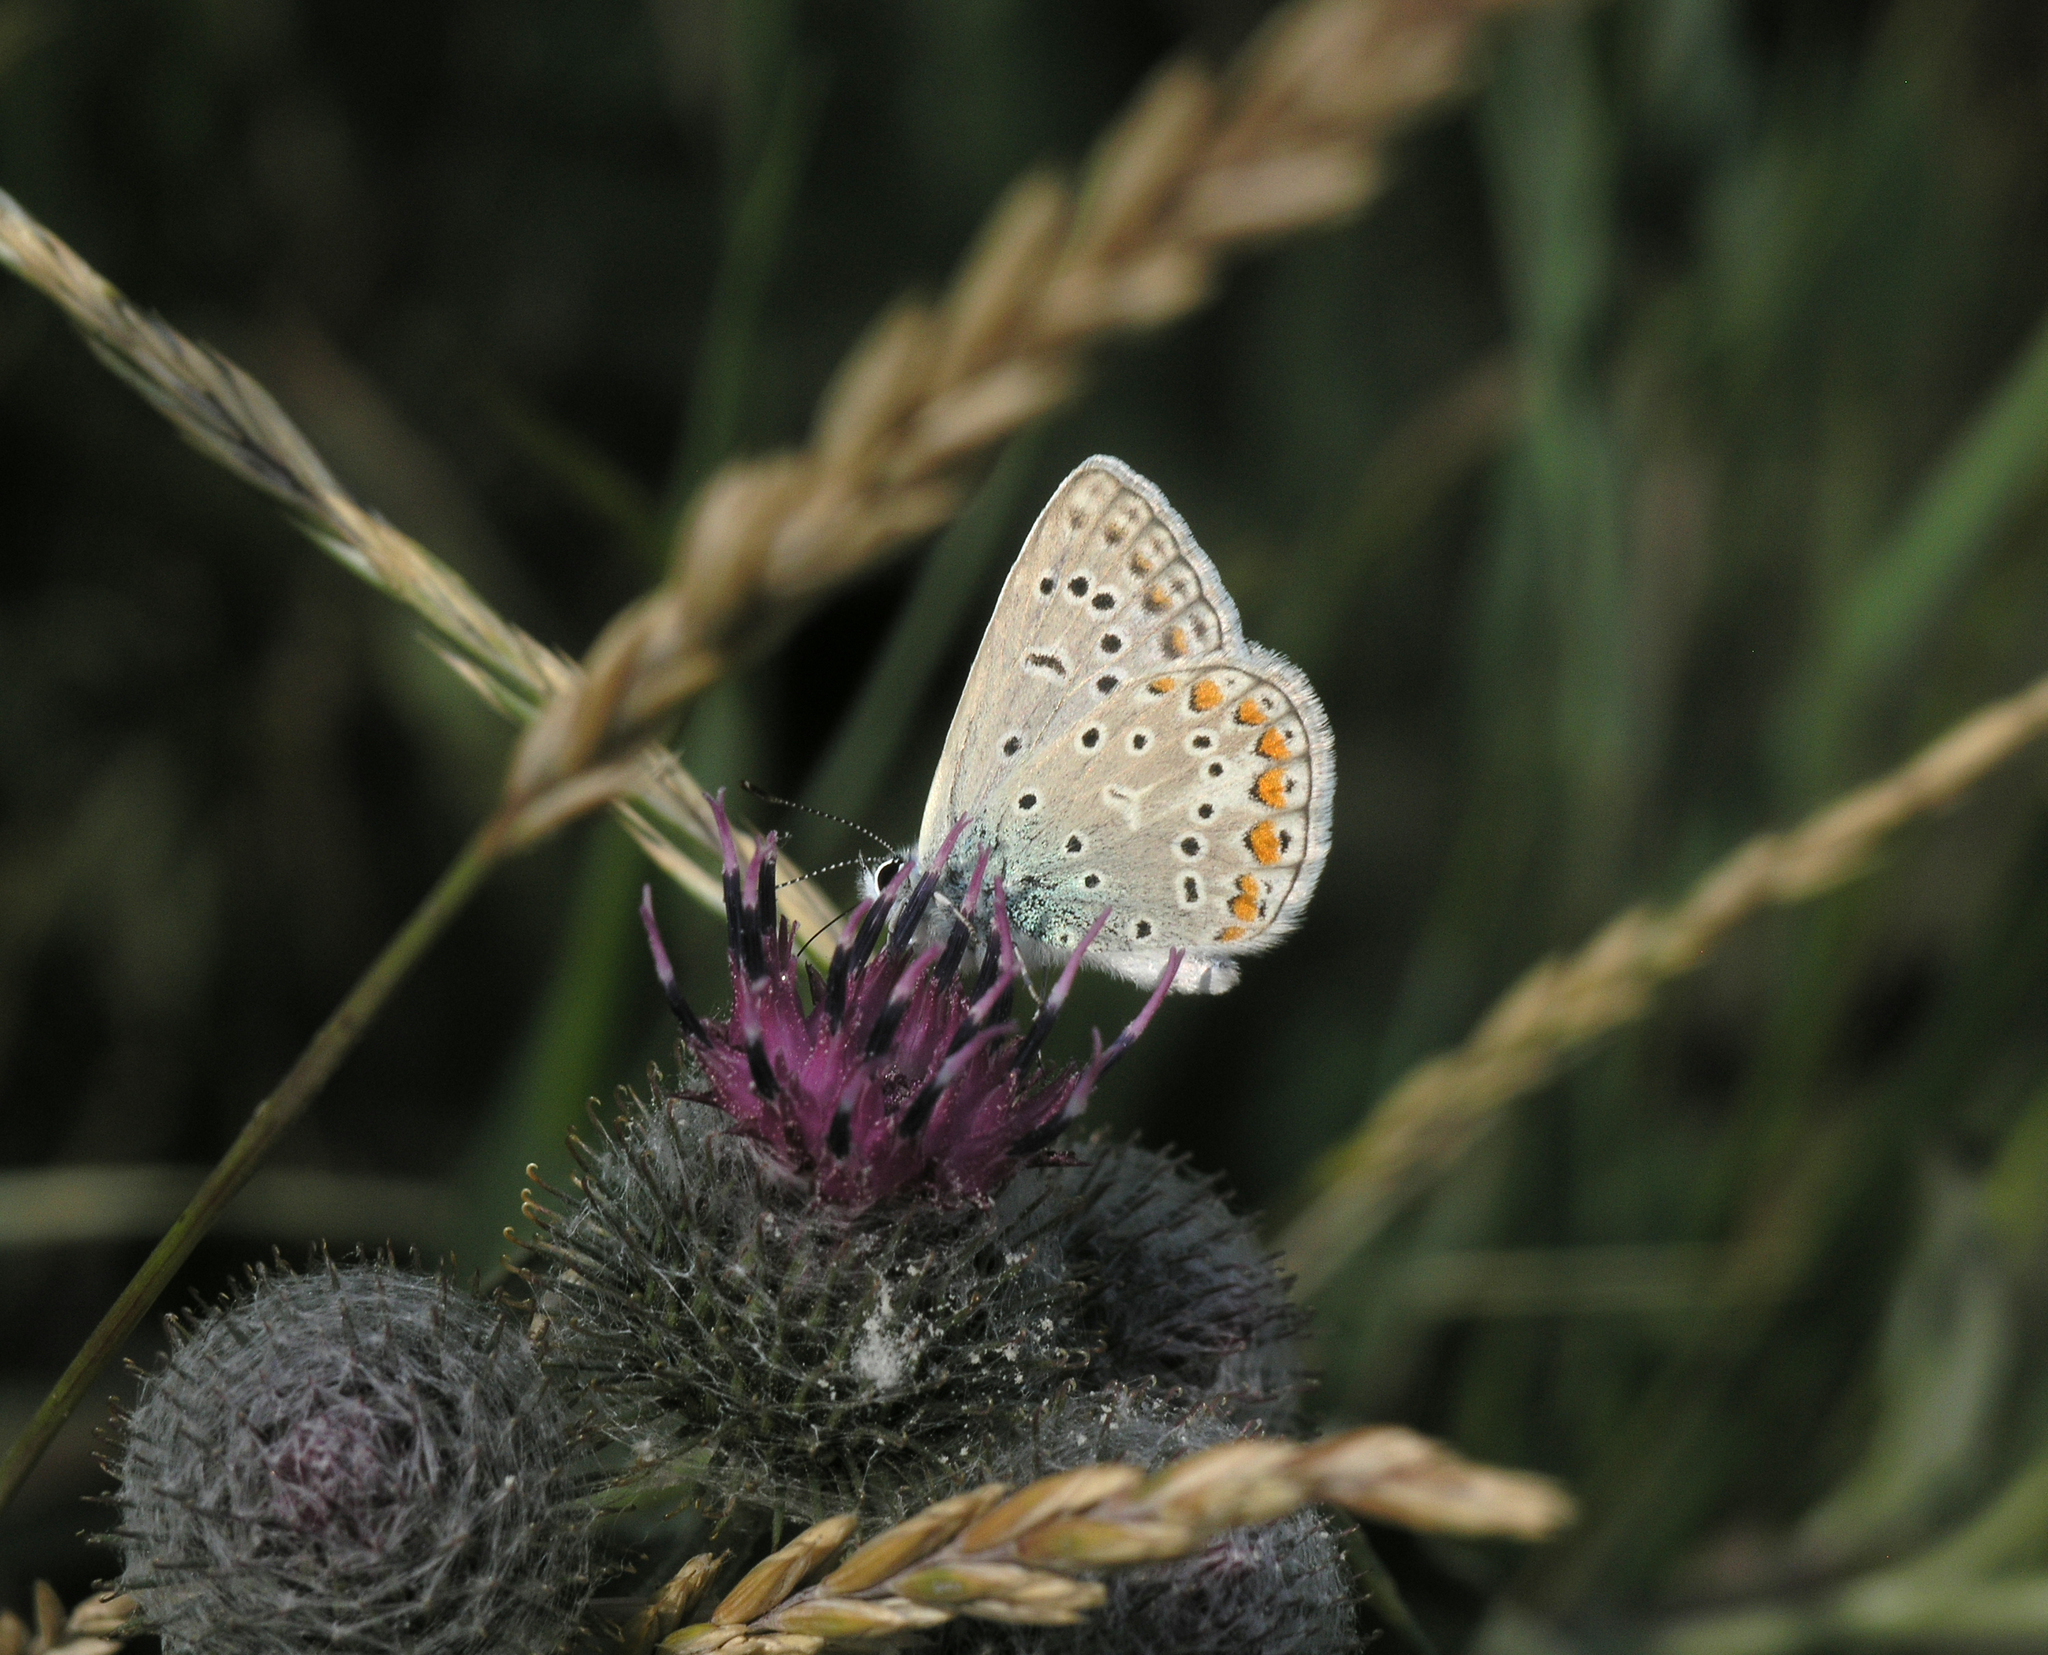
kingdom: Animalia
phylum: Arthropoda
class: Insecta
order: Lepidoptera
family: Lycaenidae
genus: Polyommatus
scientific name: Polyommatus icarus
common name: Common blue
